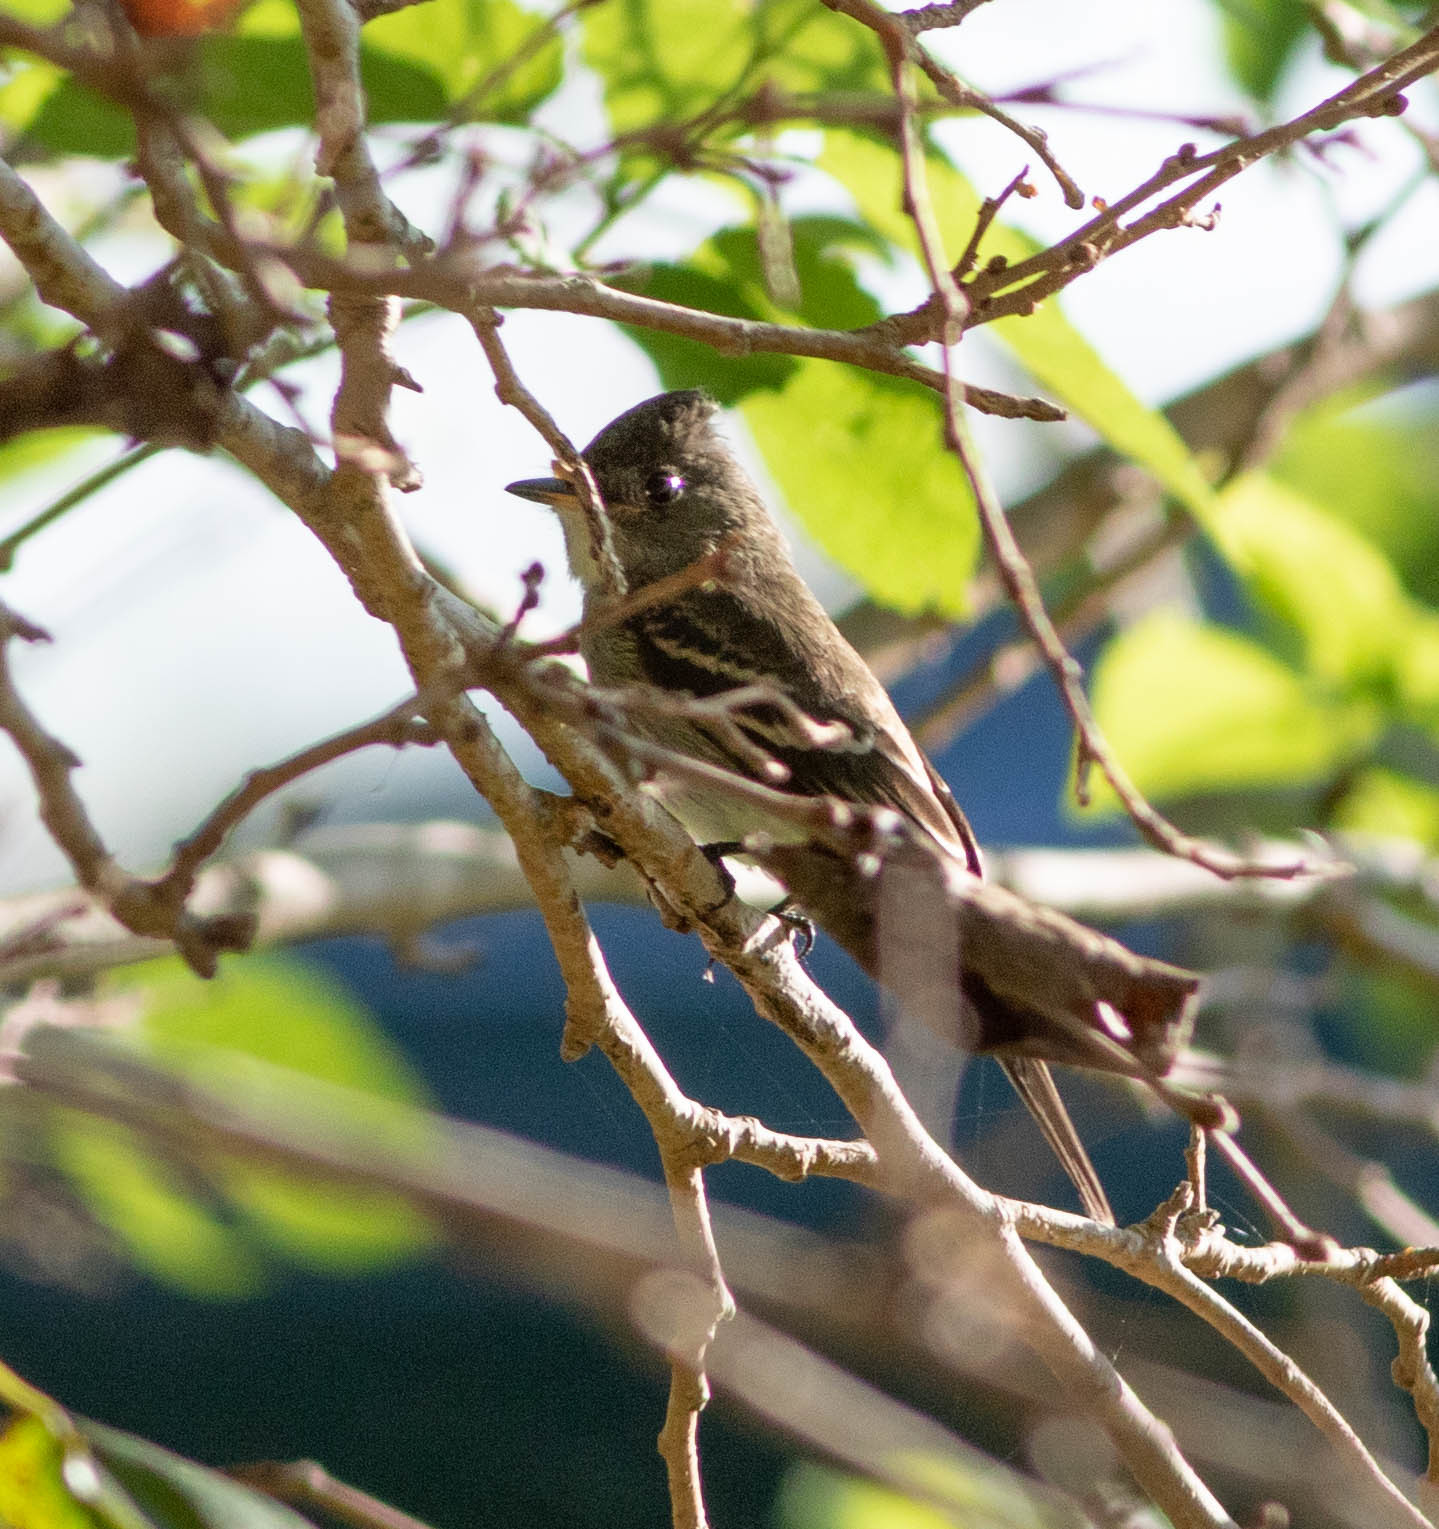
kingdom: Animalia
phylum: Chordata
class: Aves
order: Passeriformes
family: Tyrannidae
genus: Contopus
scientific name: Contopus virens
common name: Eastern wood-pewee
